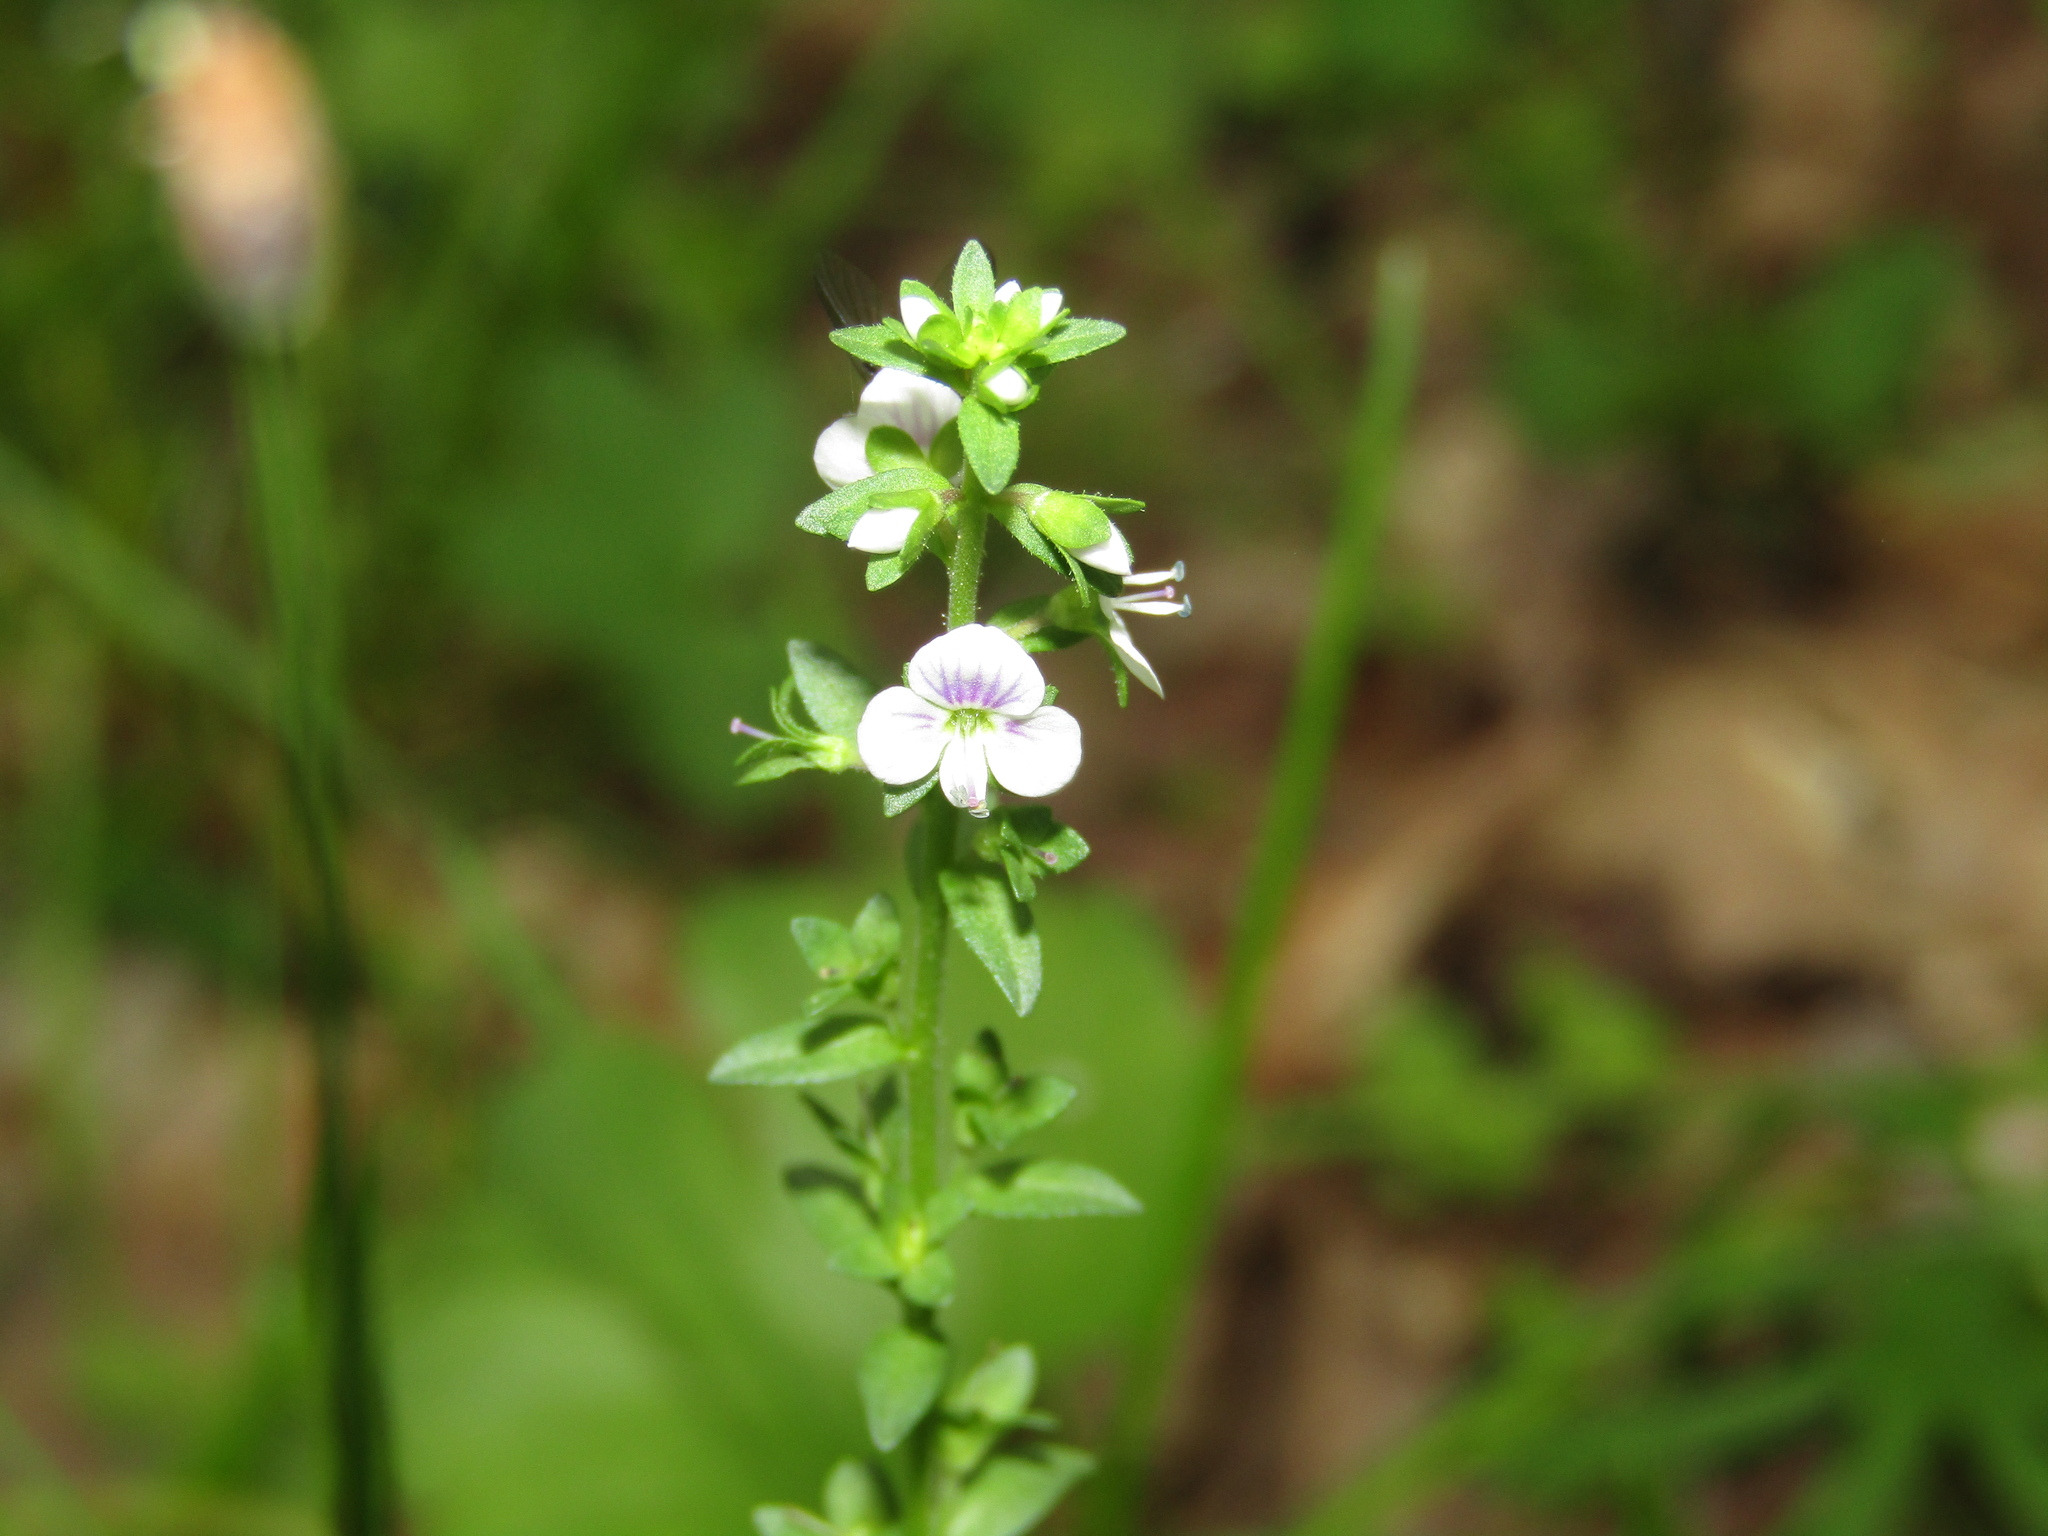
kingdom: Plantae
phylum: Tracheophyta
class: Magnoliopsida
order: Lamiales
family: Plantaginaceae
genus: Veronica
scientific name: Veronica serpyllifolia
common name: Thyme-leaved speedwell
